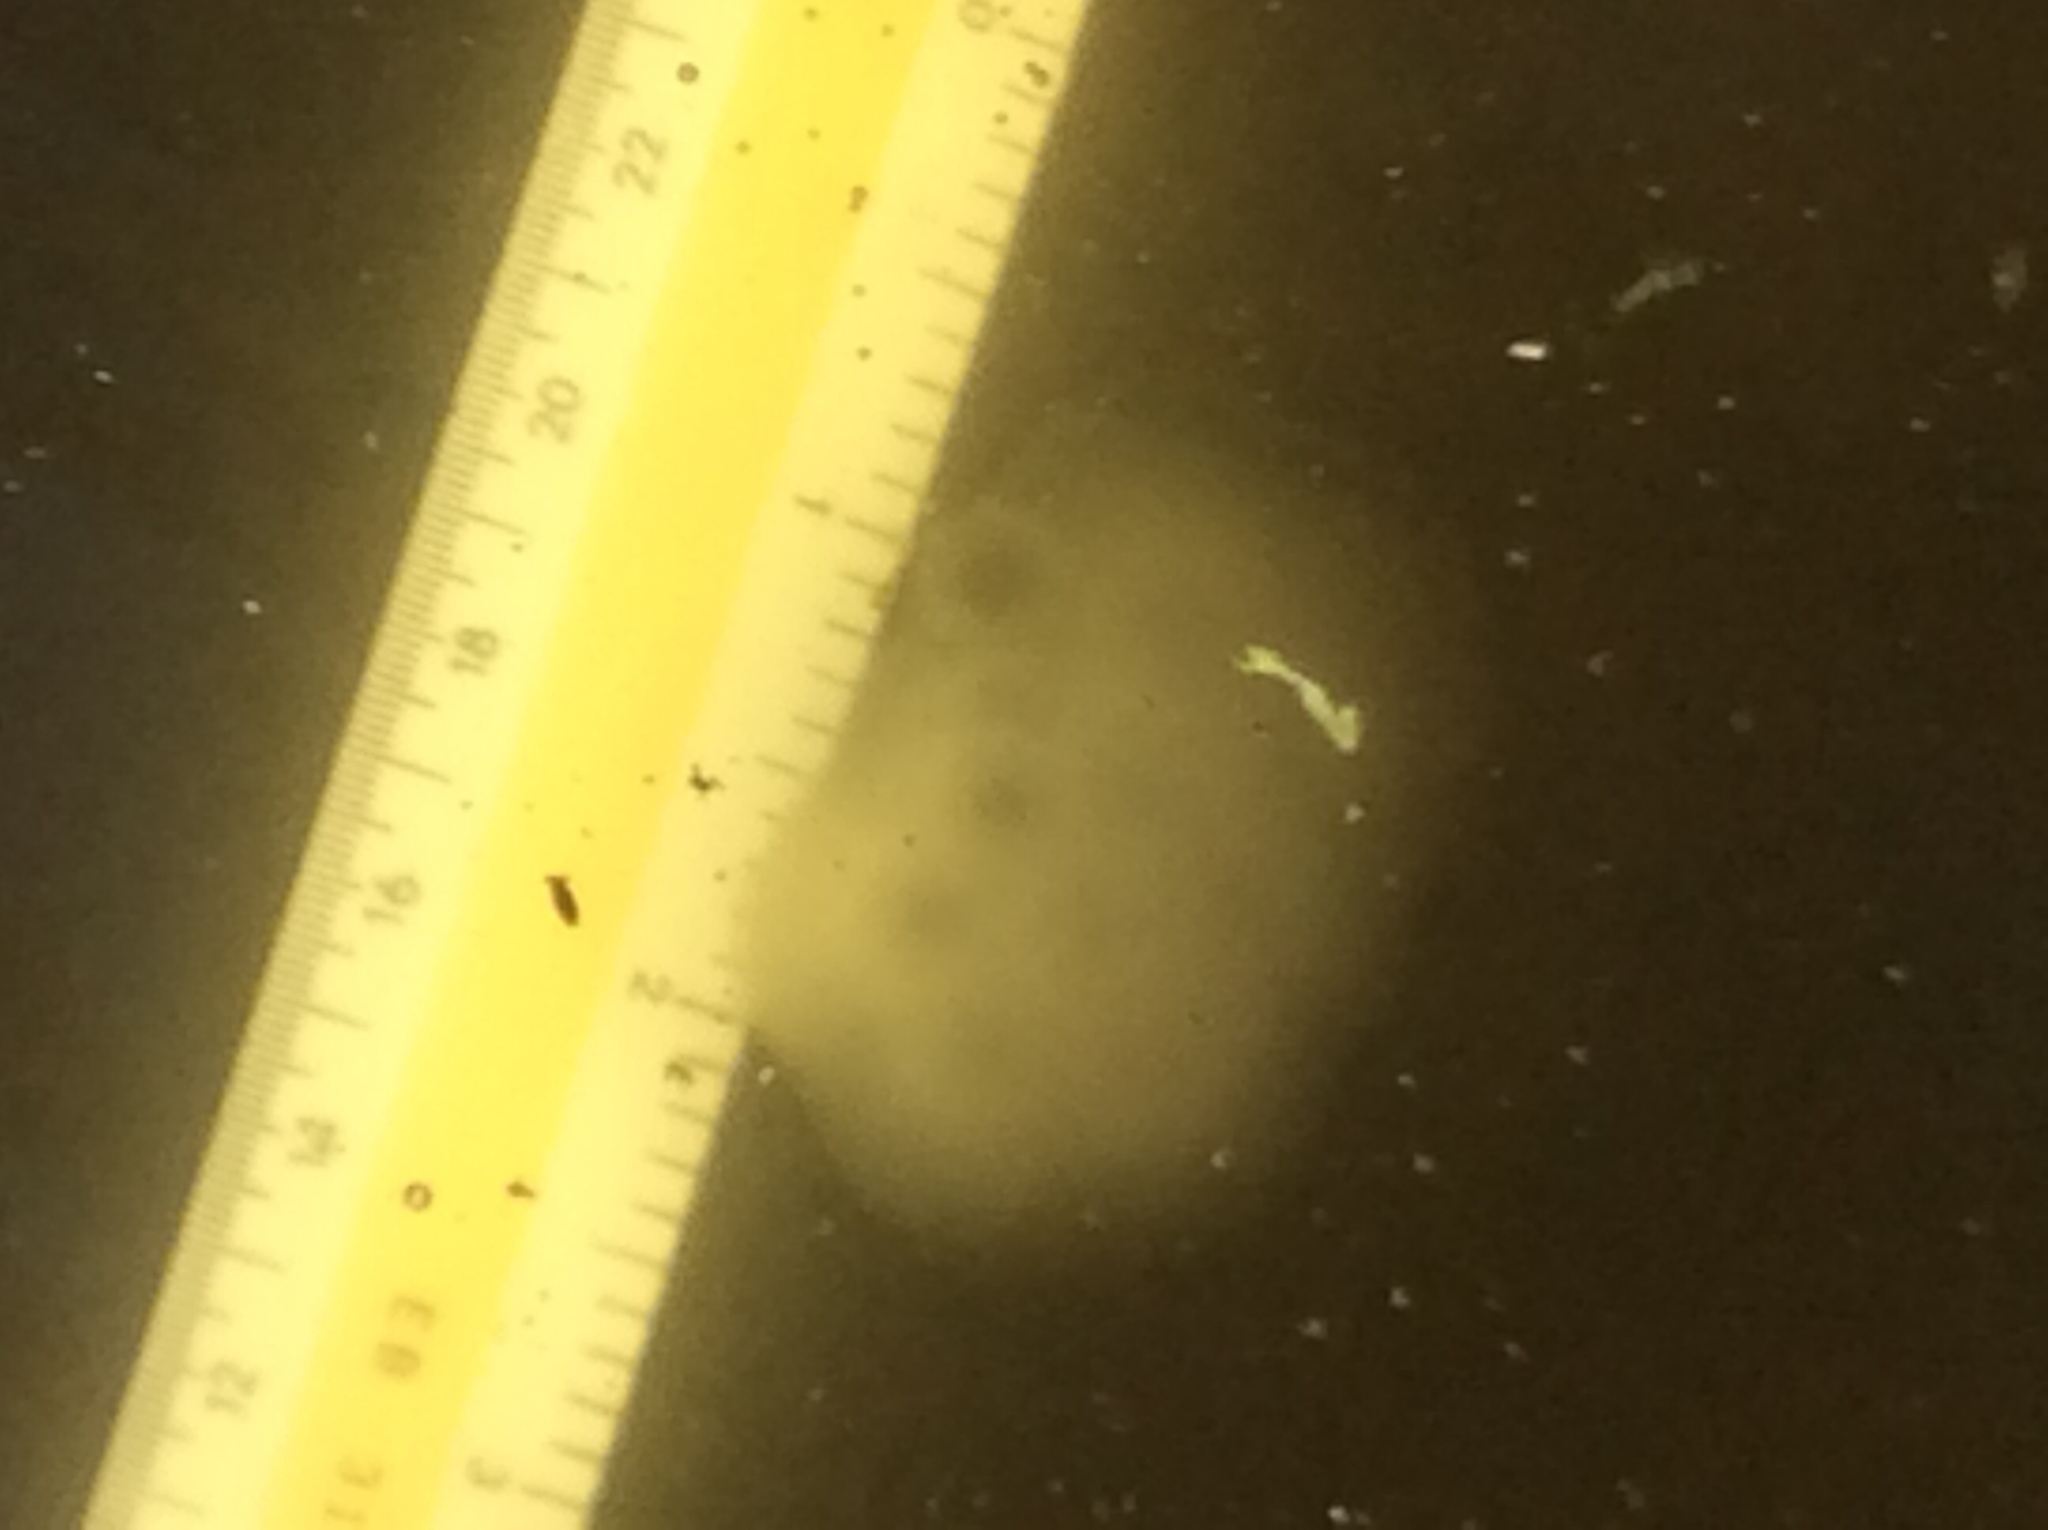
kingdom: Animalia
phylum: Chordata
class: Amphibia
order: Caudata
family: Ambystomatidae
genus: Ambystoma
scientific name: Ambystoma maculatum
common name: Spotted salamander
